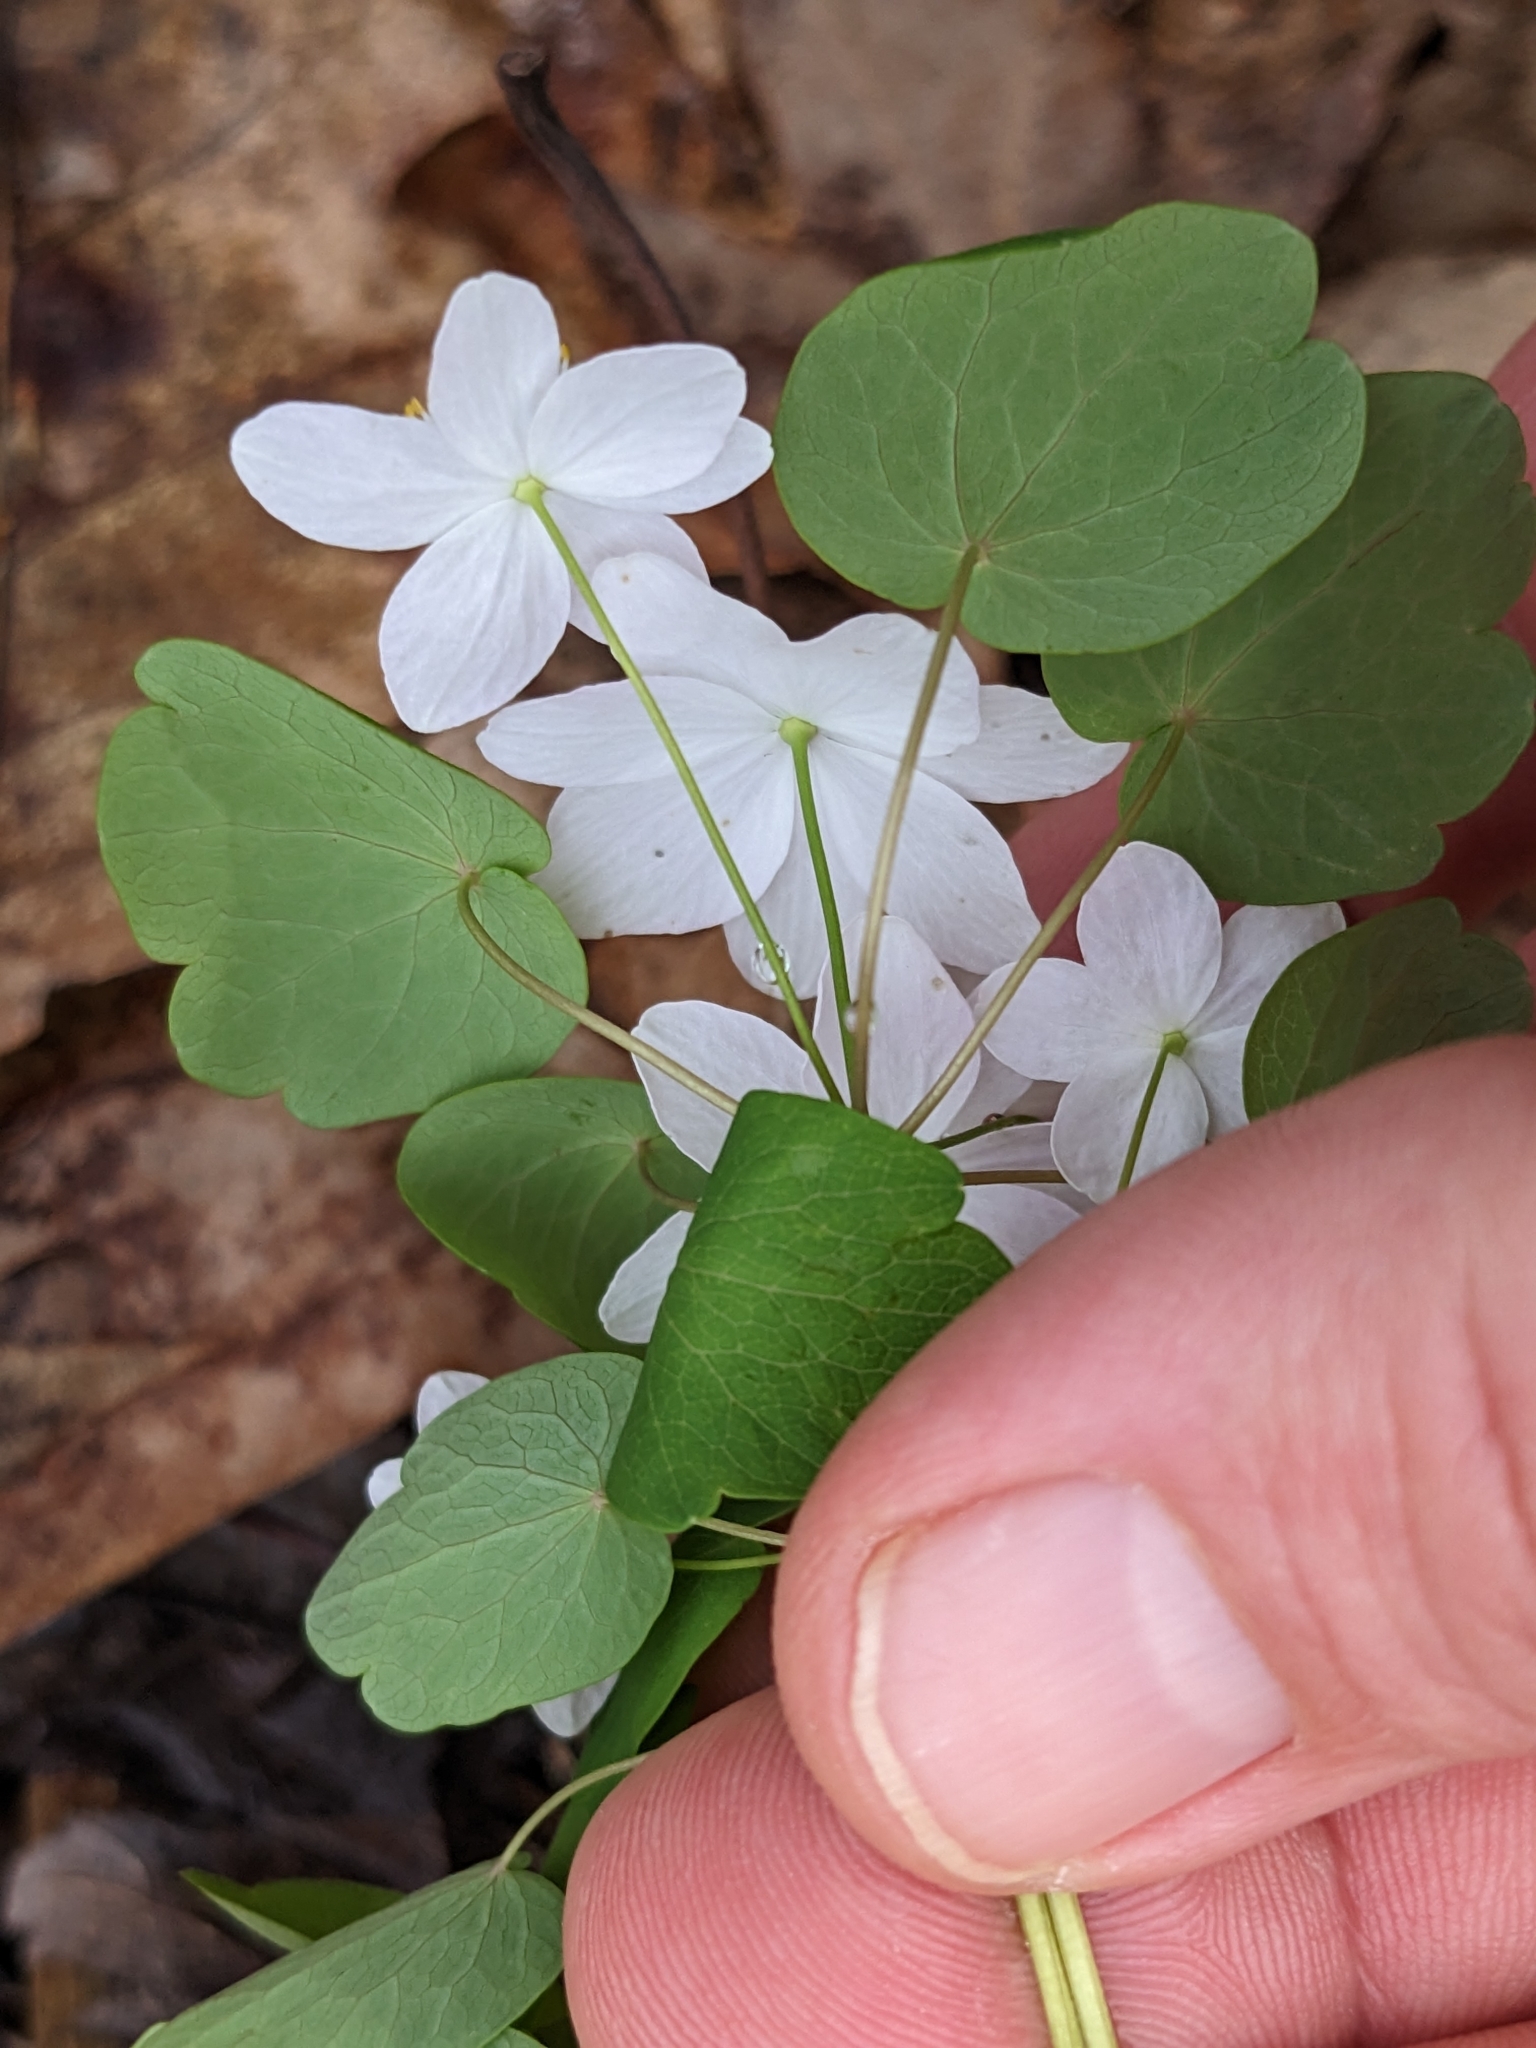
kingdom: Plantae
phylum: Tracheophyta
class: Magnoliopsida
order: Ranunculales
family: Ranunculaceae
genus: Thalictrum
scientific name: Thalictrum thalictroides
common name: Rue-anemone
